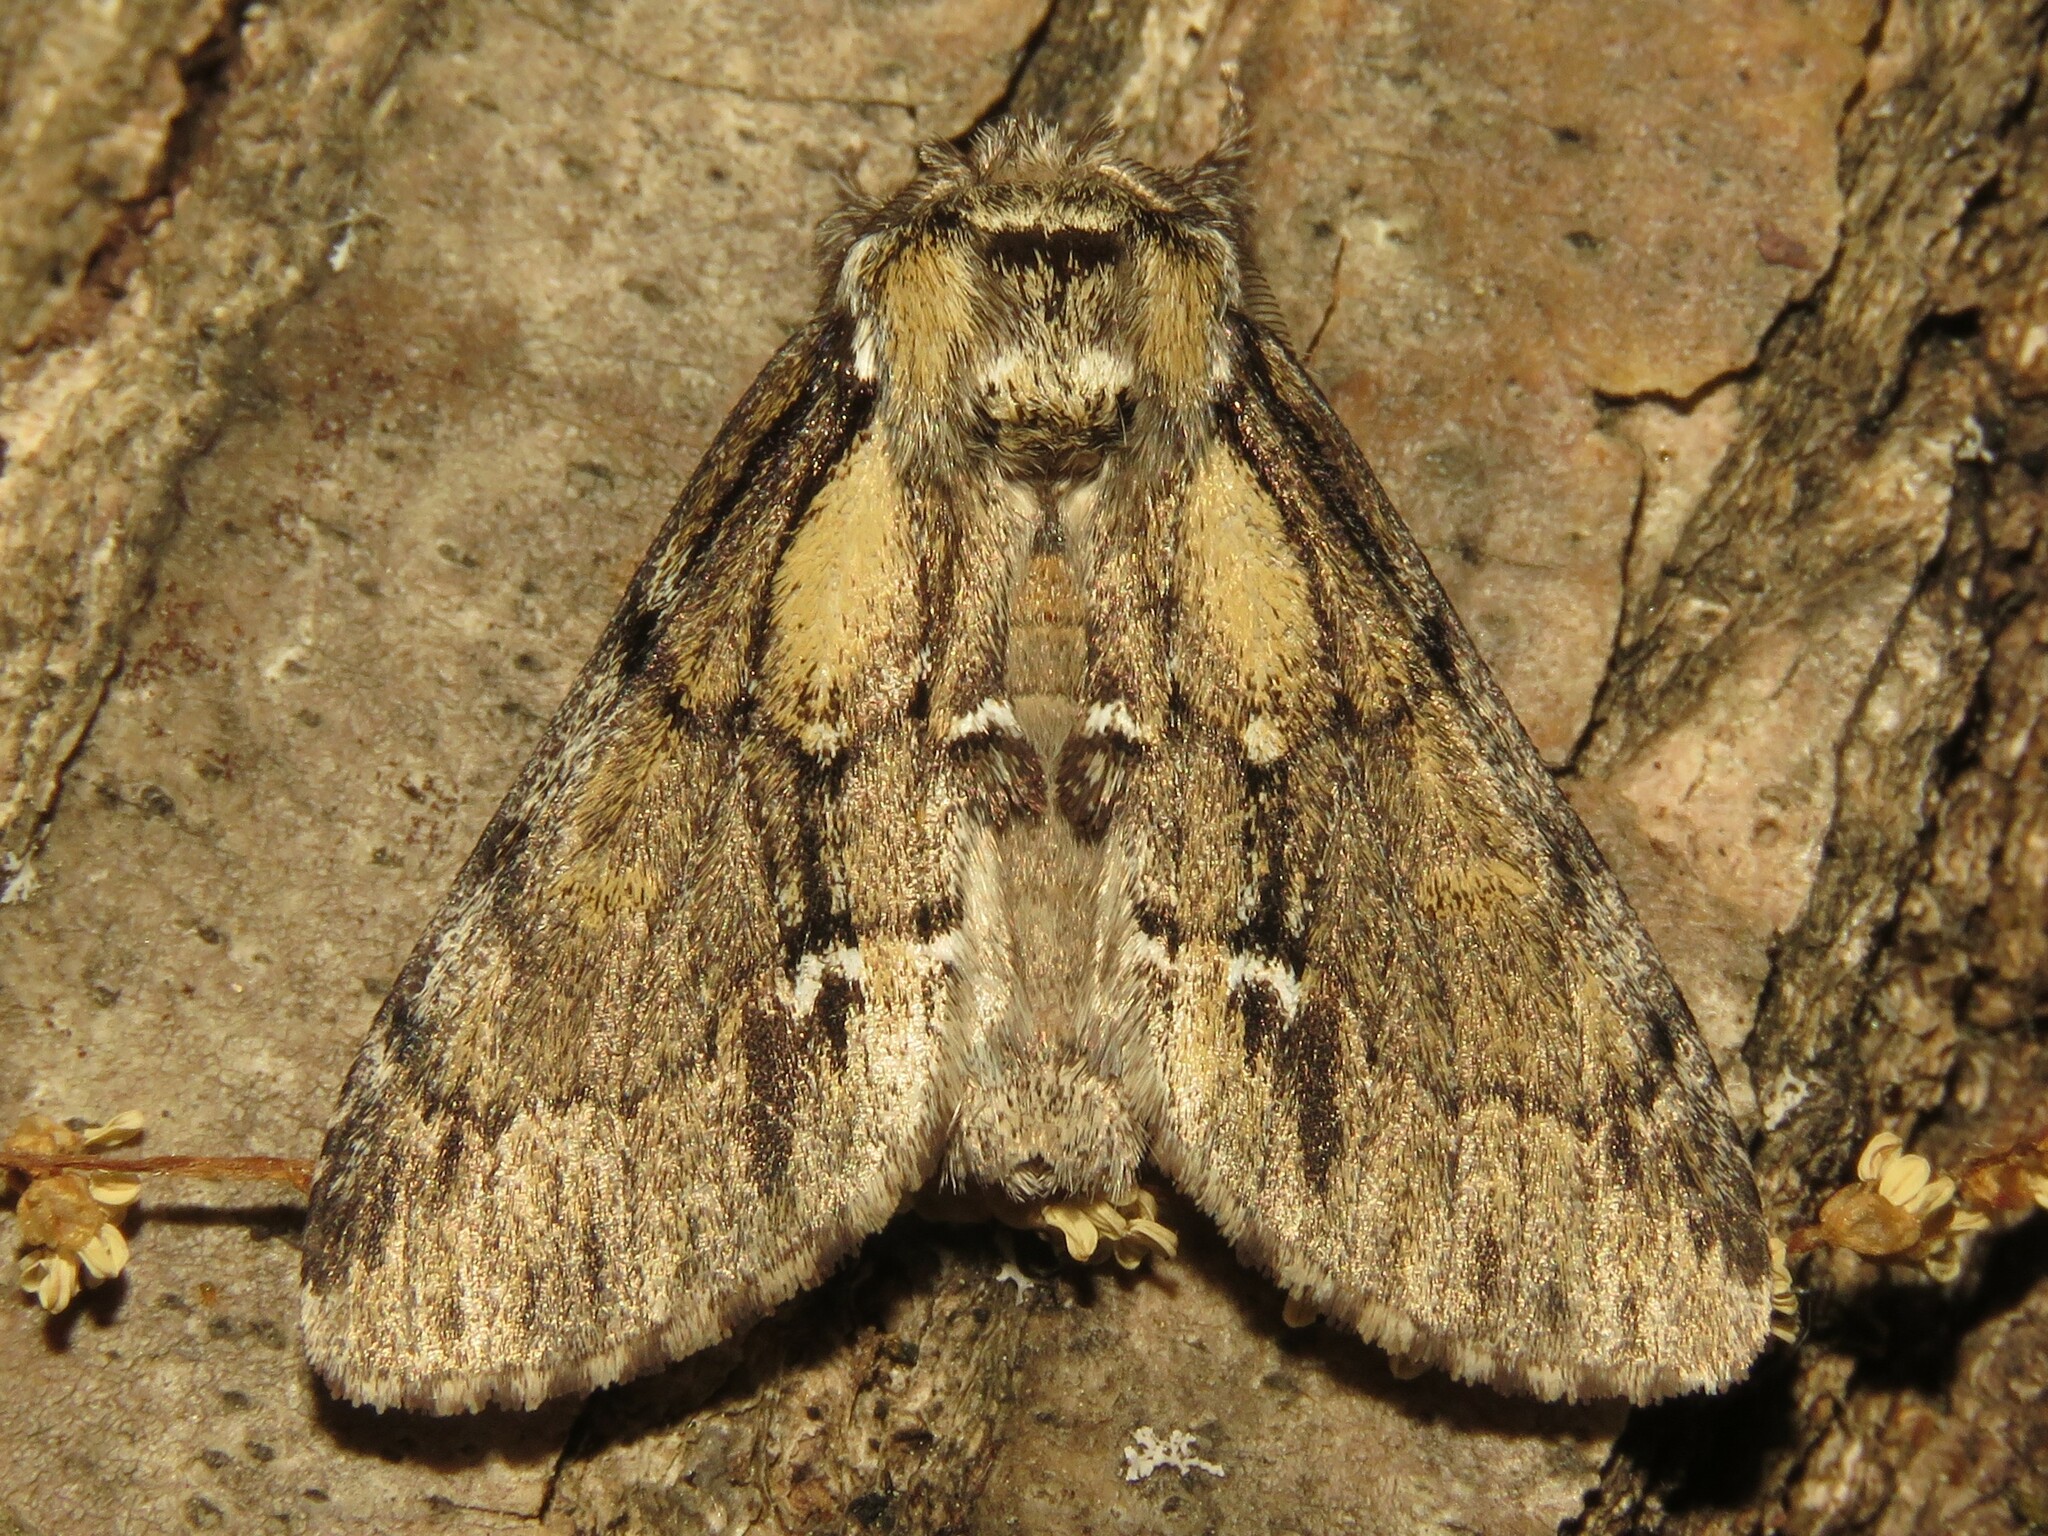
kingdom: Animalia
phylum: Arthropoda
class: Insecta
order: Lepidoptera
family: Notodontidae
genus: Paraeschra
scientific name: Paraeschra georgica
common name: Georgian prominent
